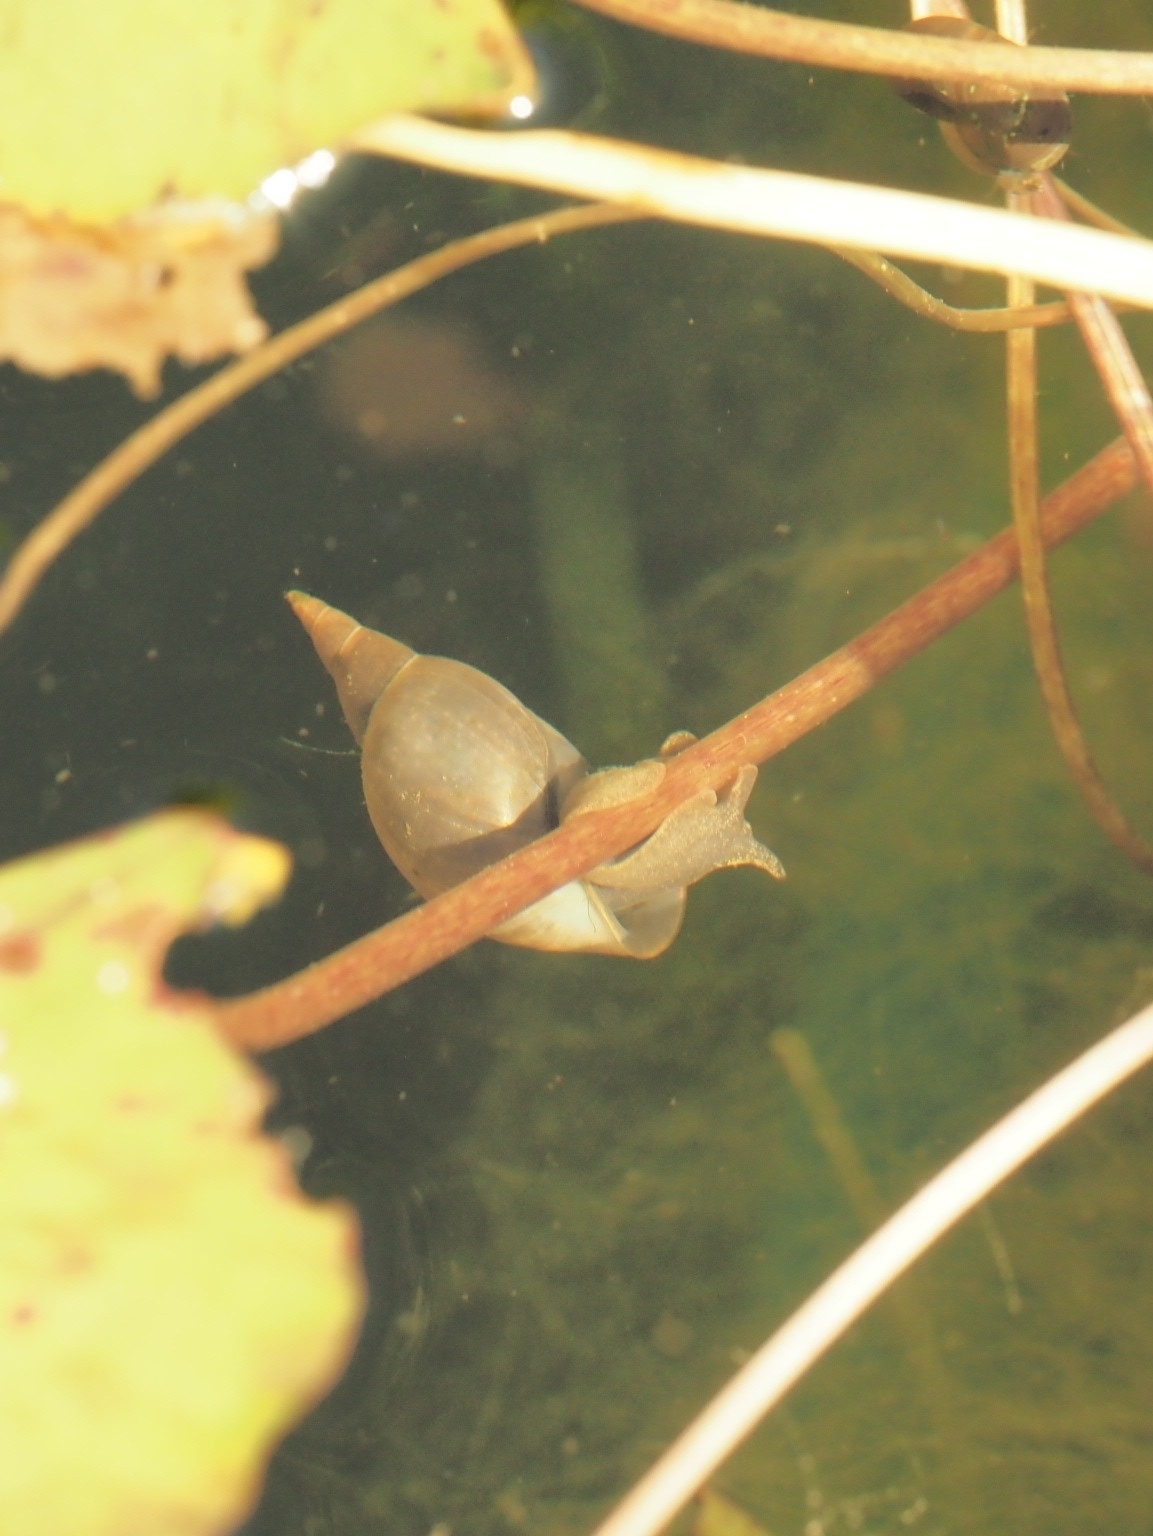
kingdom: Animalia
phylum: Mollusca
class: Gastropoda
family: Lymnaeidae
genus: Lymnaea
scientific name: Lymnaea stagnalis
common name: Great pond snail
